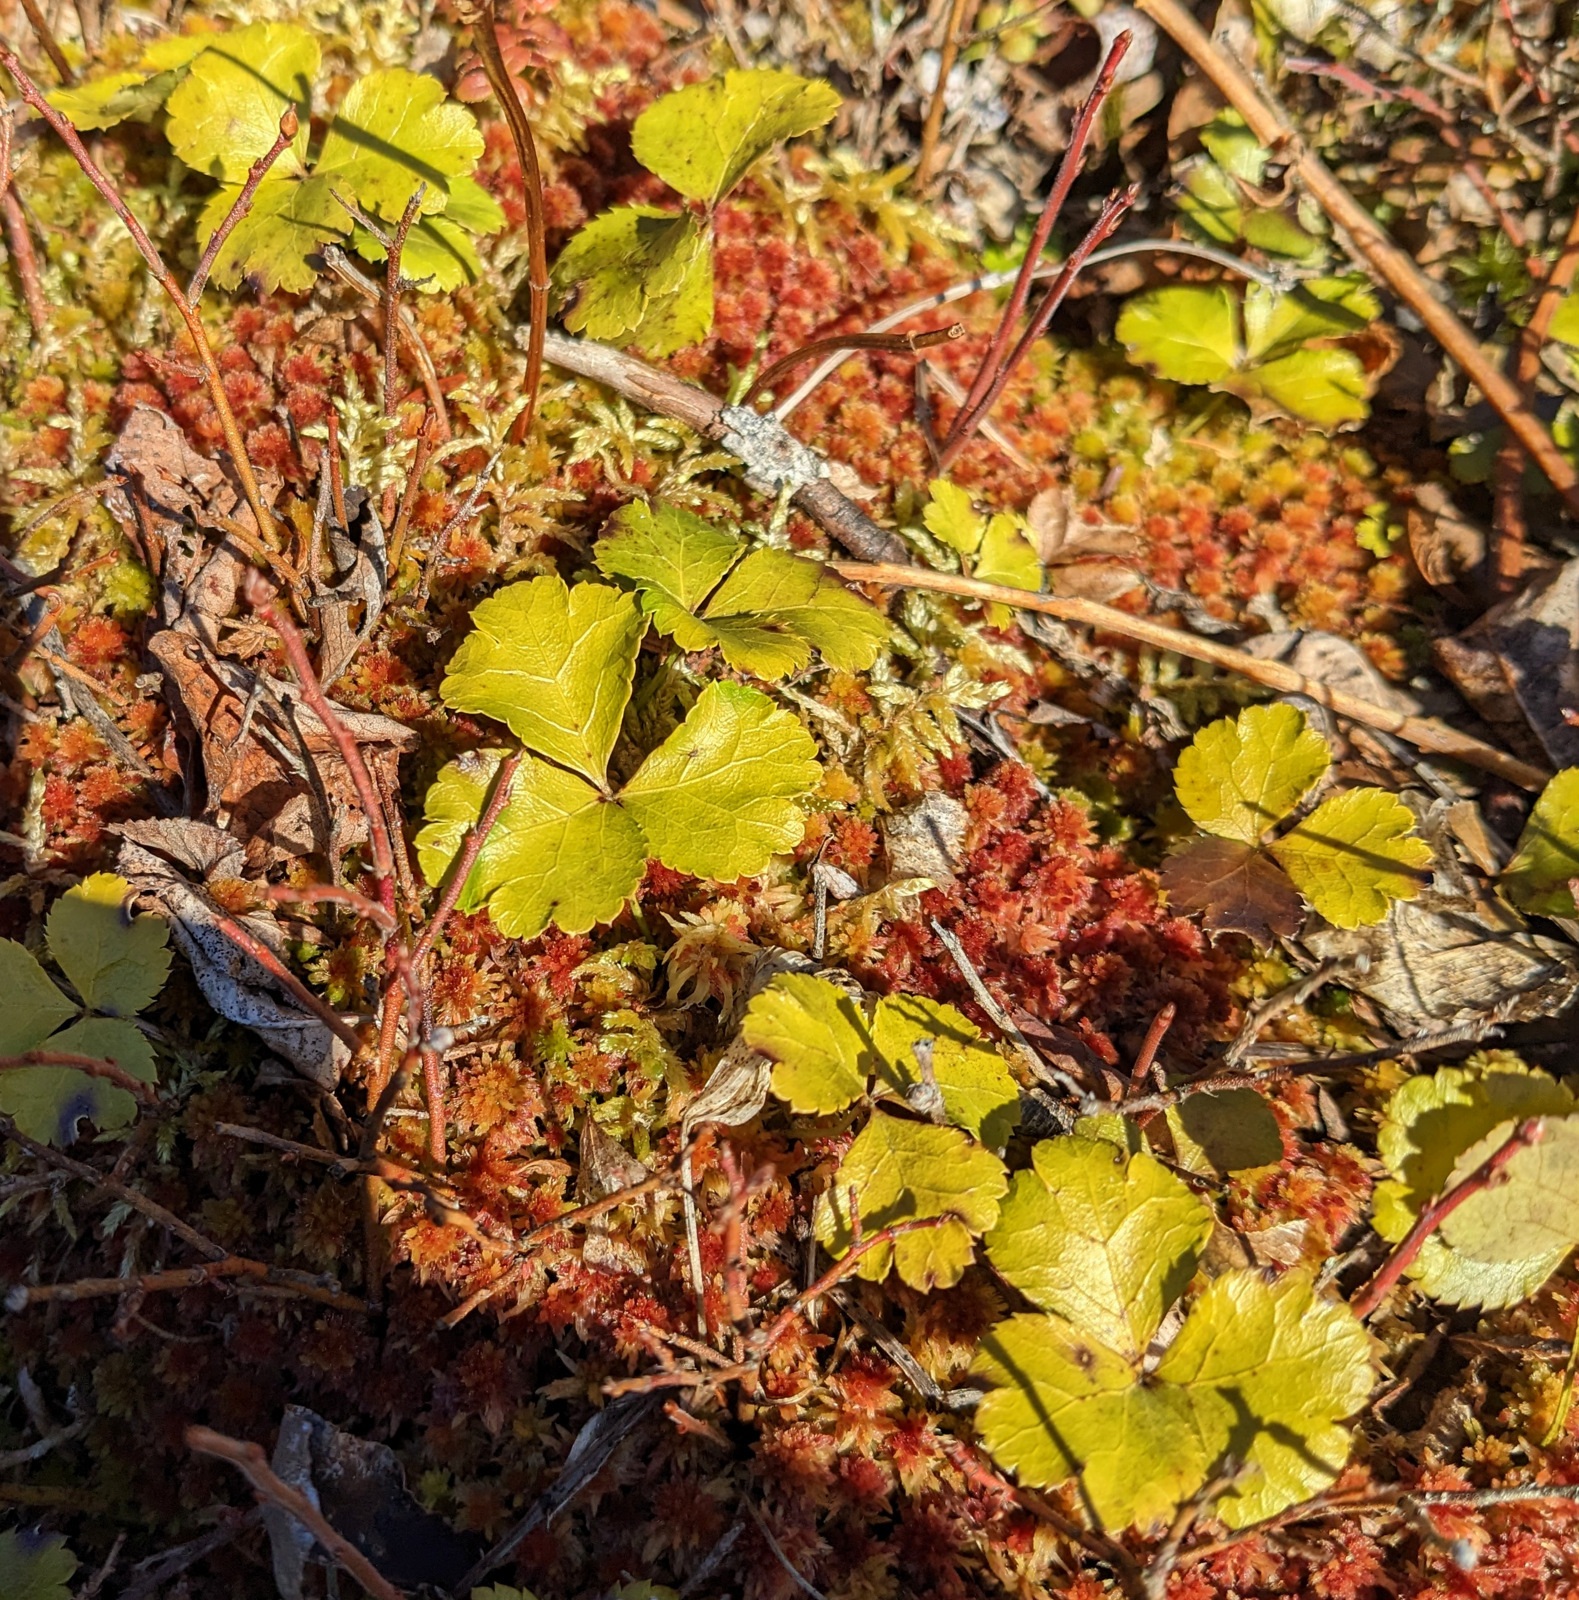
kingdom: Plantae
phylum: Tracheophyta
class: Magnoliopsida
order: Ranunculales
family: Ranunculaceae
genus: Coptis
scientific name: Coptis trifolia
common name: Canker-root
